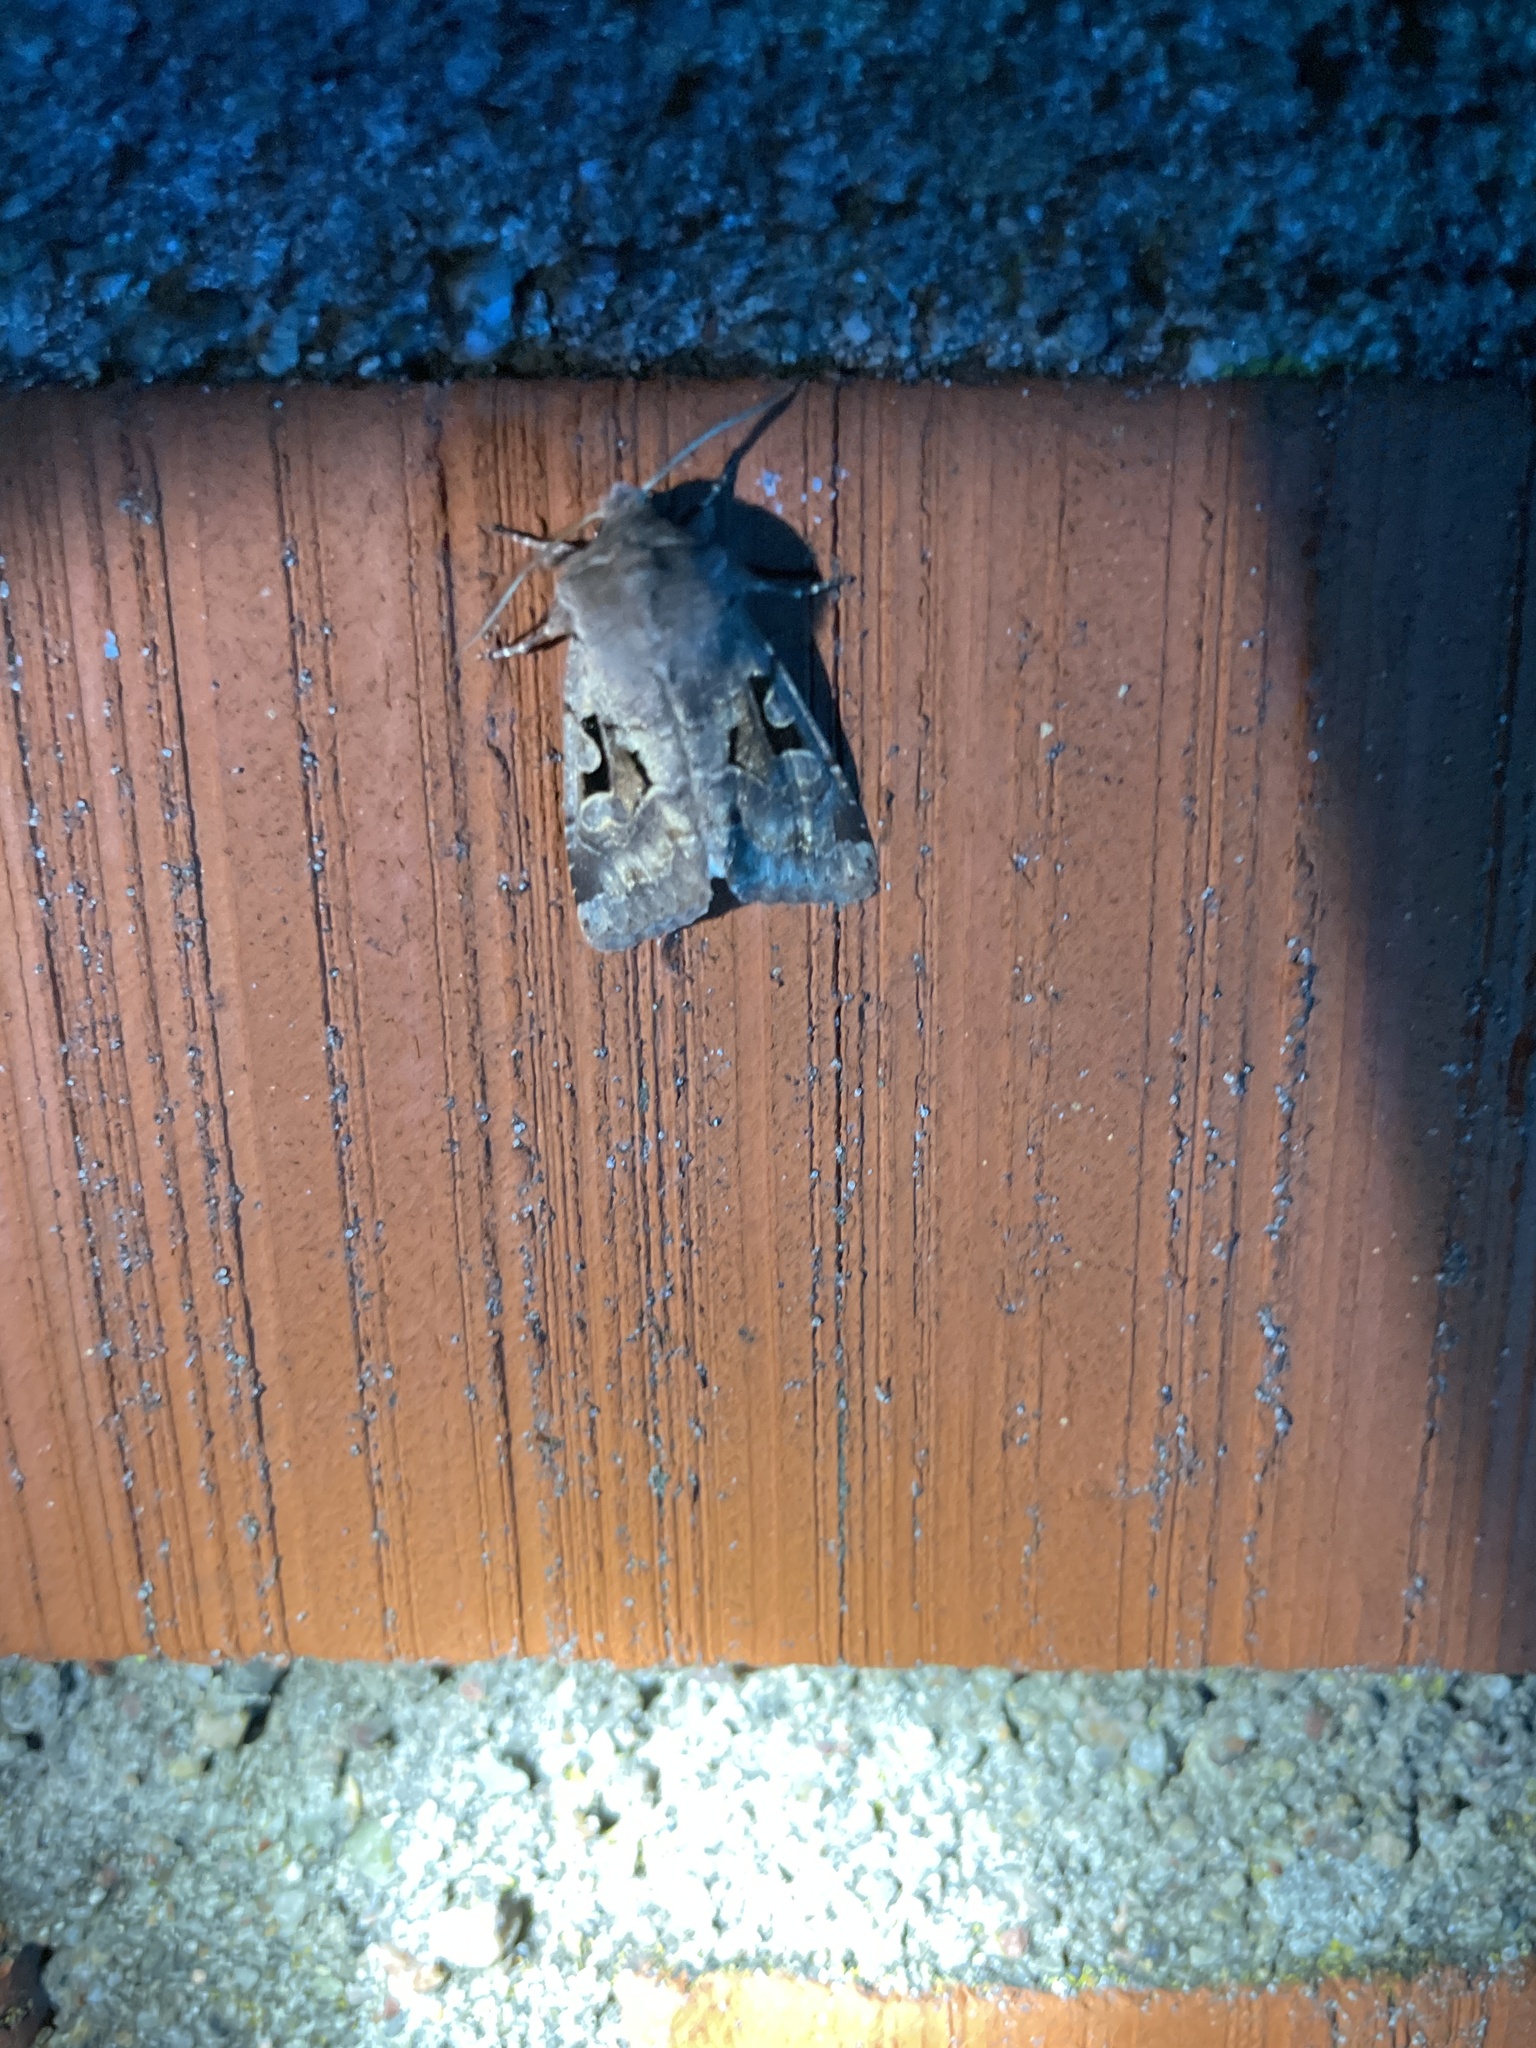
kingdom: Animalia
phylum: Arthropoda
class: Insecta
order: Lepidoptera
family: Noctuidae
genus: Orthosia
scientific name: Orthosia gothica
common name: Hebrew character
